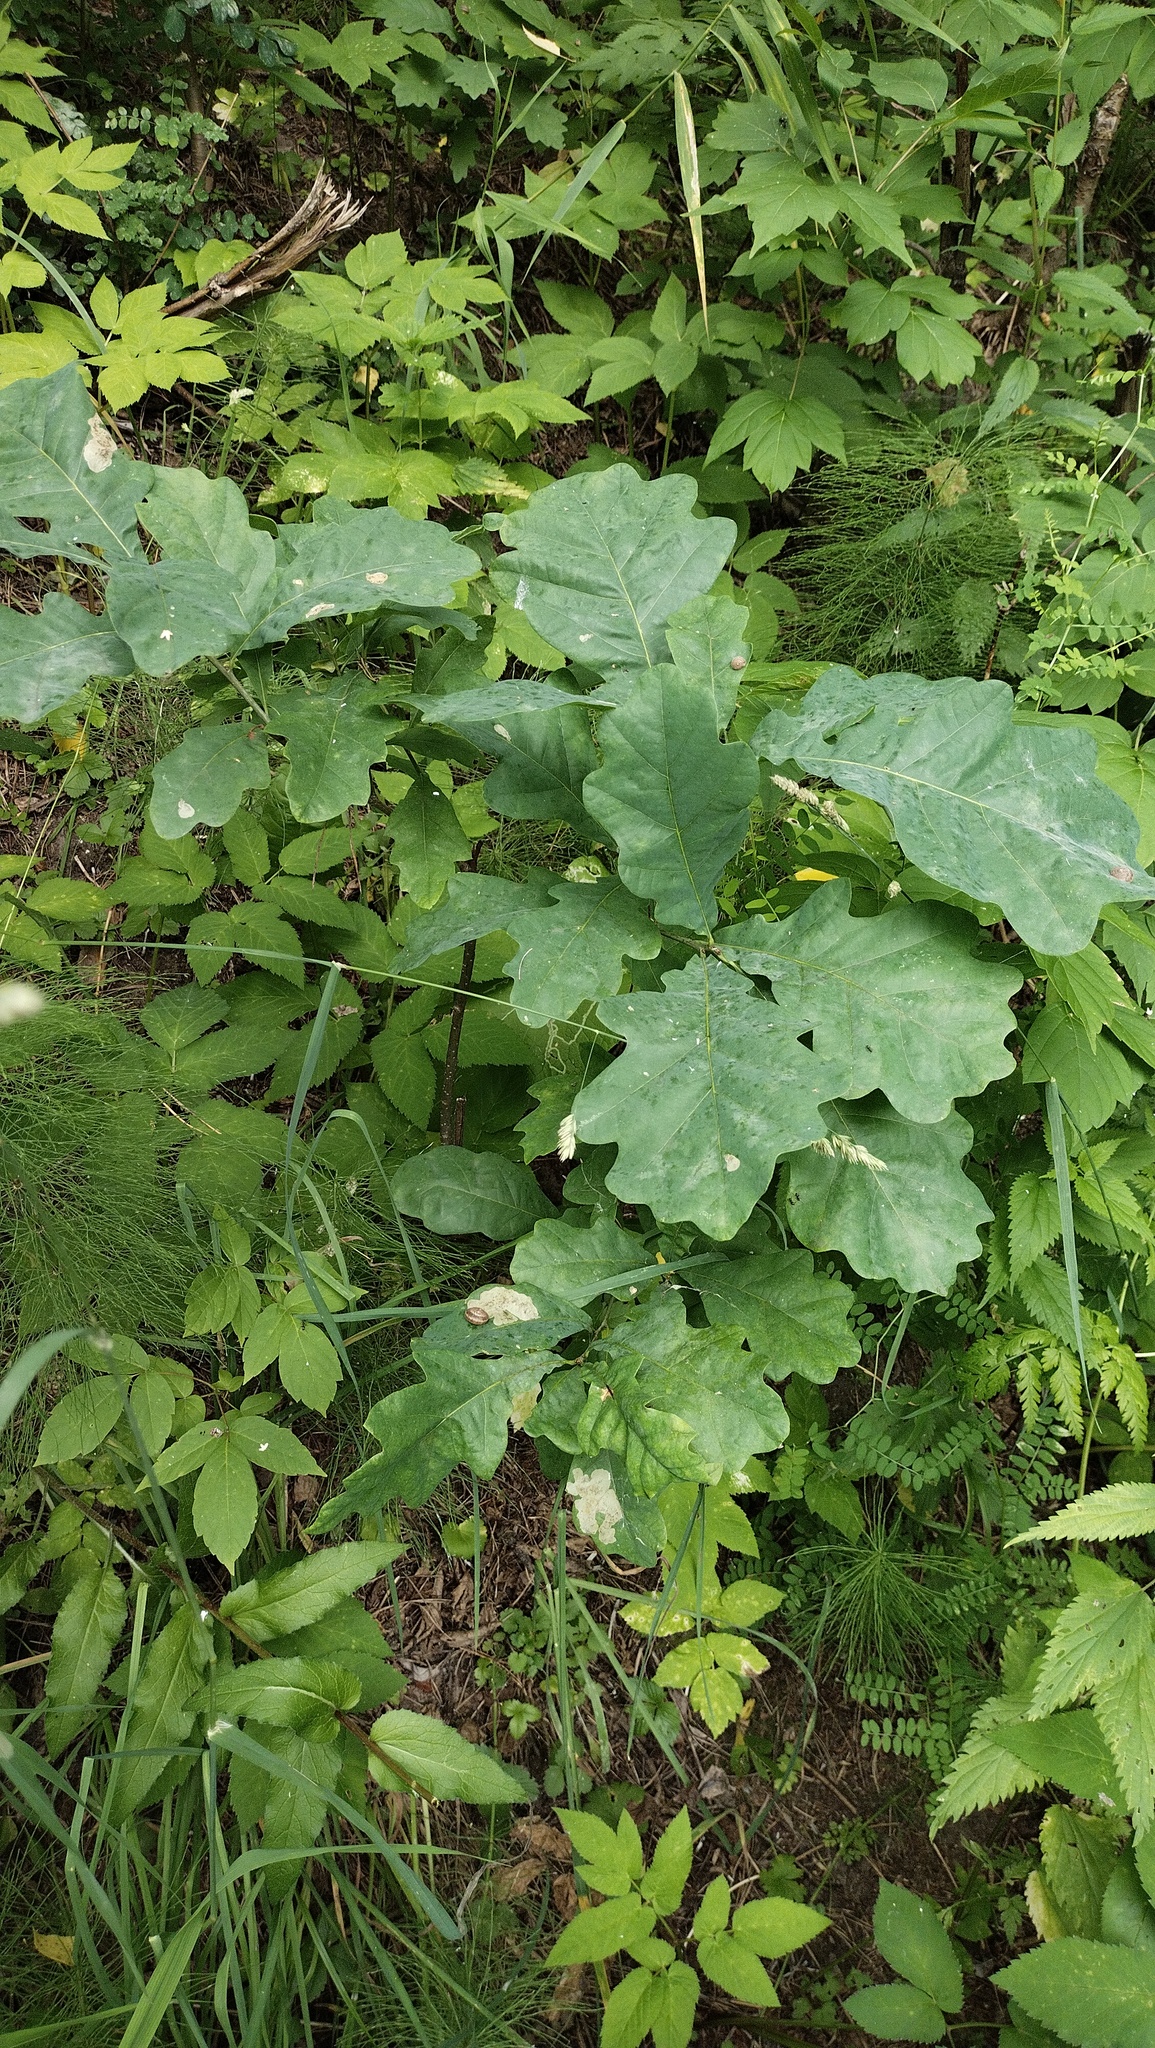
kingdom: Plantae
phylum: Tracheophyta
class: Magnoliopsida
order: Fagales
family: Fagaceae
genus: Quercus
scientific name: Quercus robur
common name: Pedunculate oak
